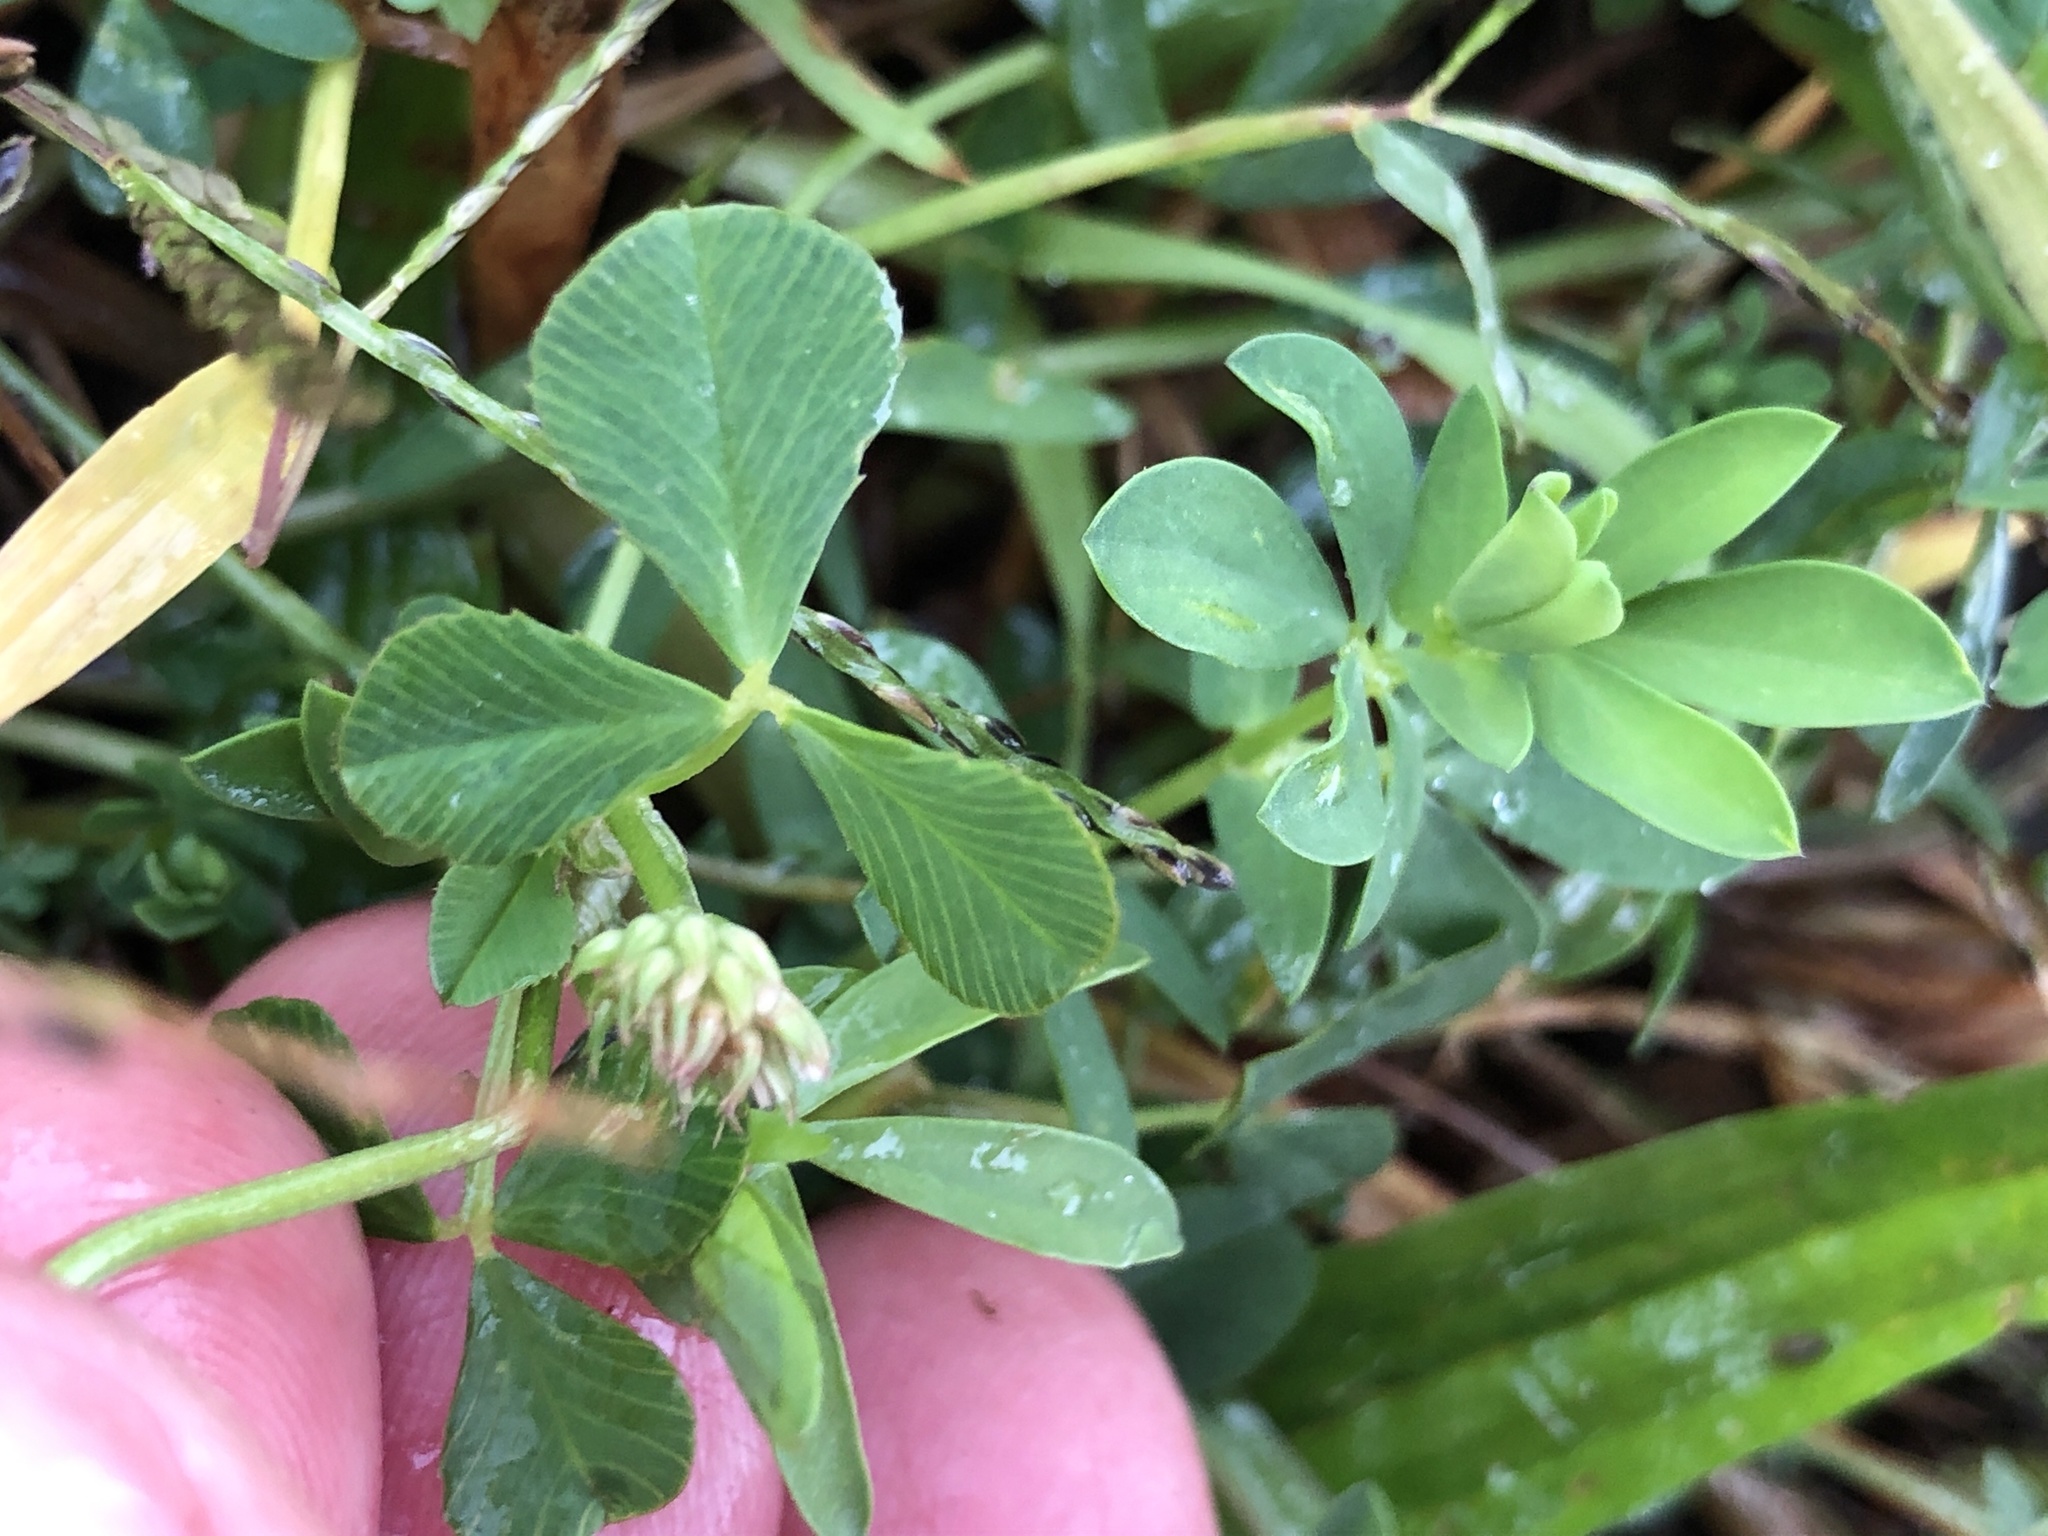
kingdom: Plantae
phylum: Tracheophyta
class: Magnoliopsida
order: Fabales
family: Fabaceae
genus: Trifolium
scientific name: Trifolium hybridum
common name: Alsike clover
